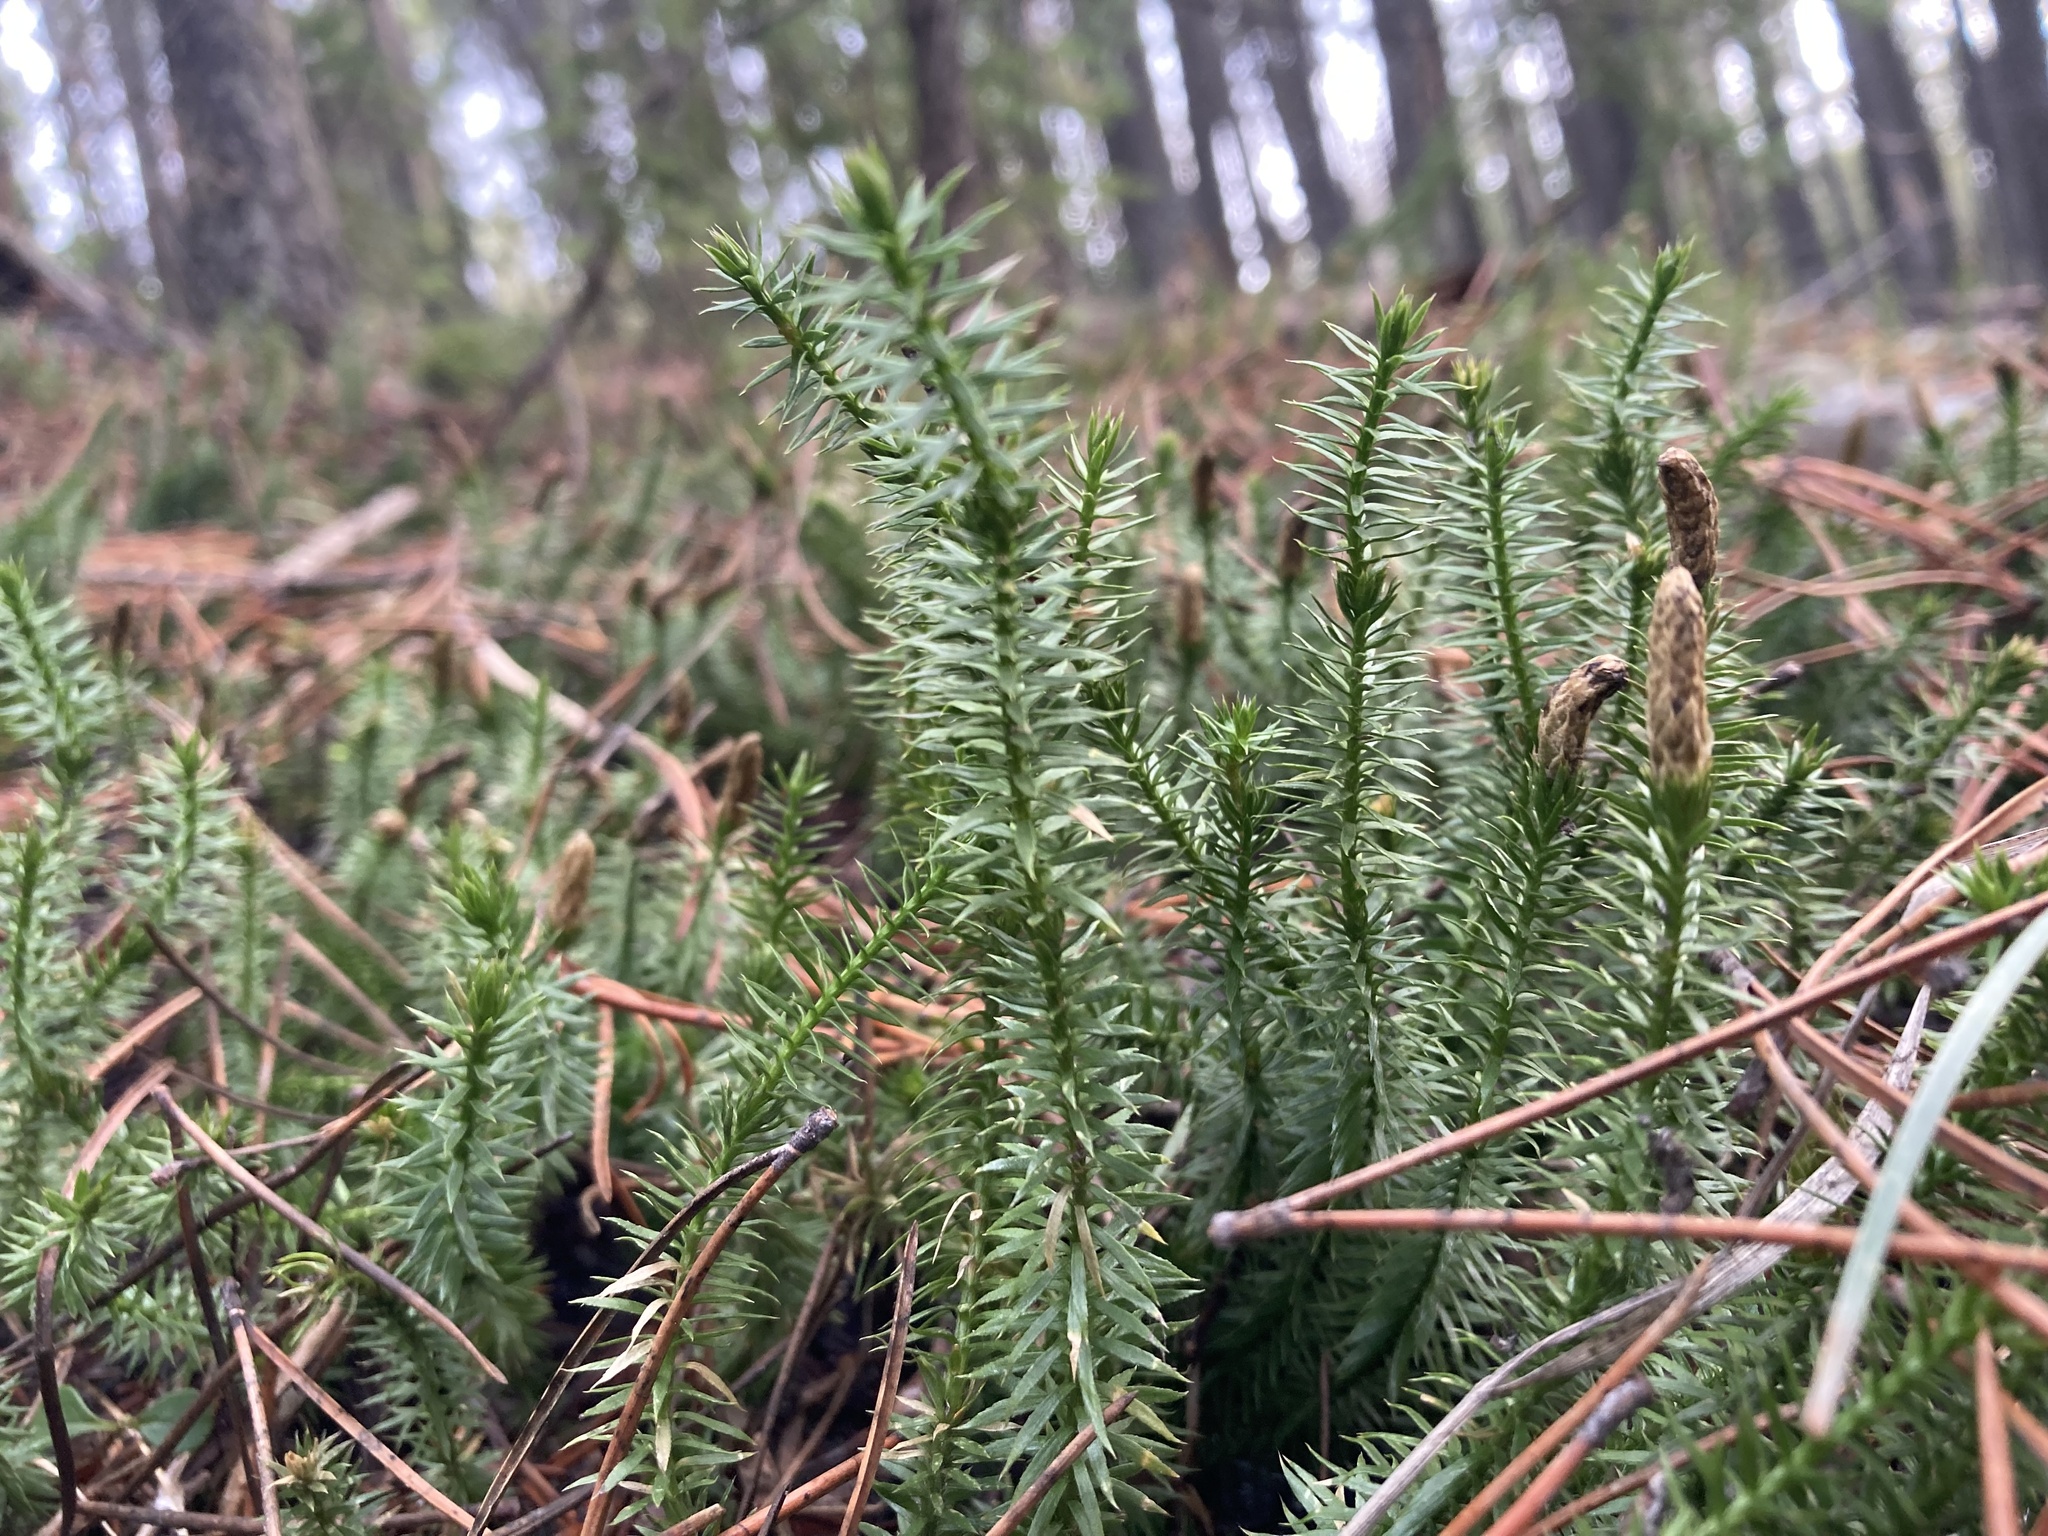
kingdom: Plantae
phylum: Tracheophyta
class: Lycopodiopsida
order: Lycopodiales
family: Lycopodiaceae
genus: Spinulum
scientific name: Spinulum annotinum
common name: Interrupted club-moss
